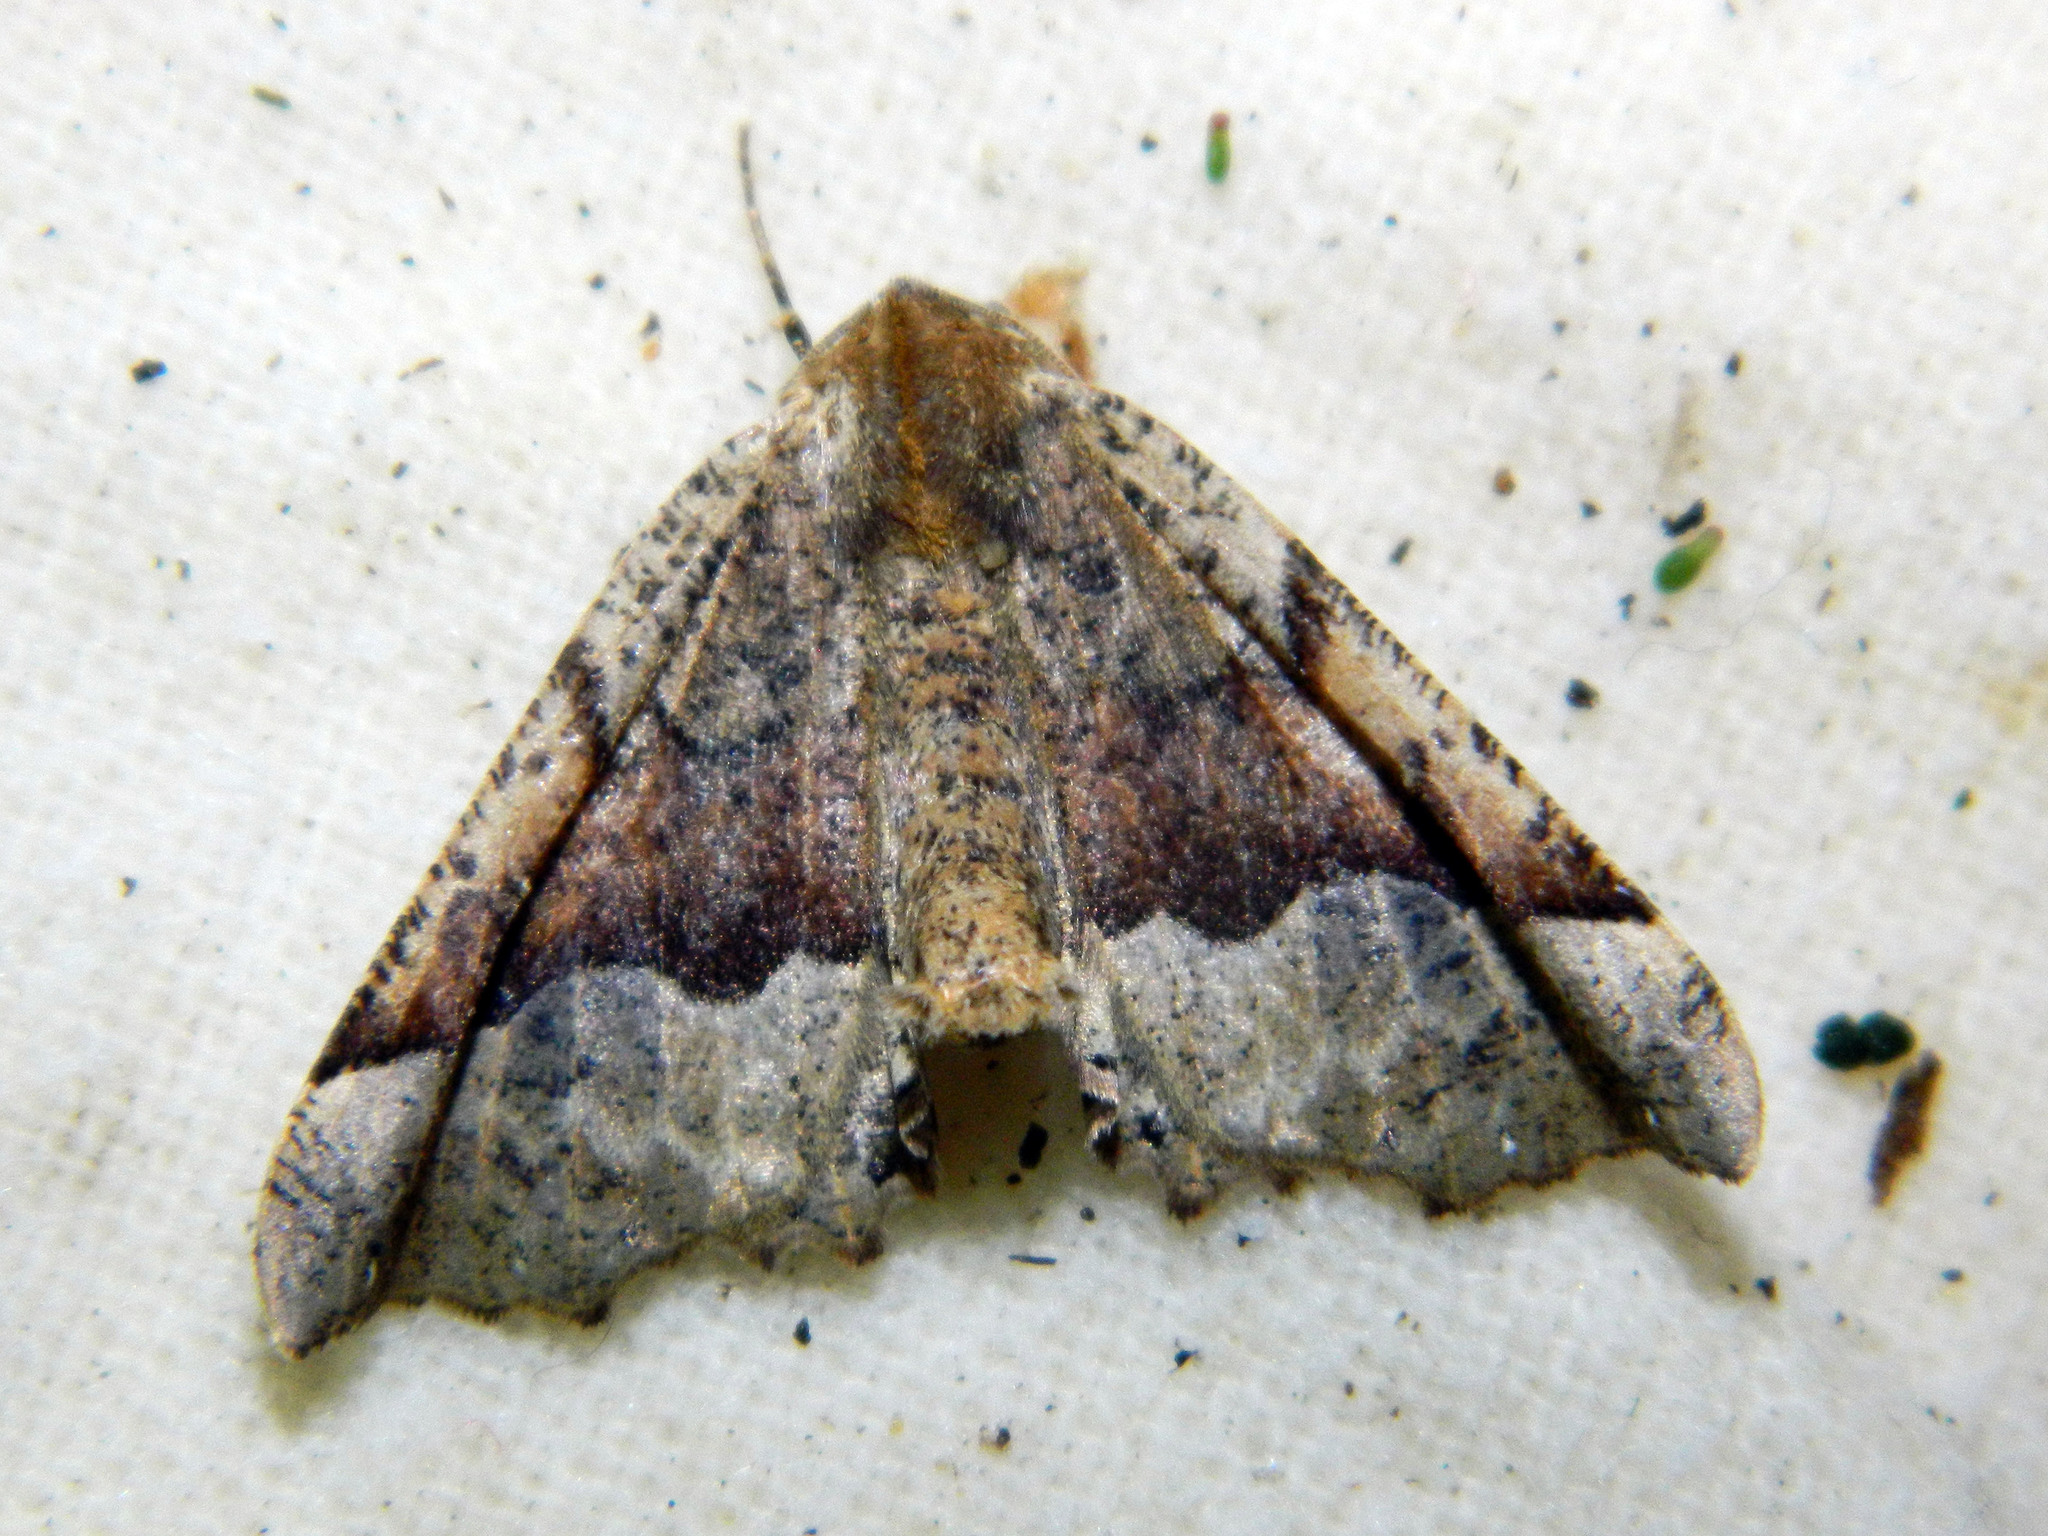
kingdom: Animalia
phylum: Arthropoda
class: Insecta
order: Lepidoptera
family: Geometridae
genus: Pero
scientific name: Pero morrisonaria
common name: Morrison's pero
